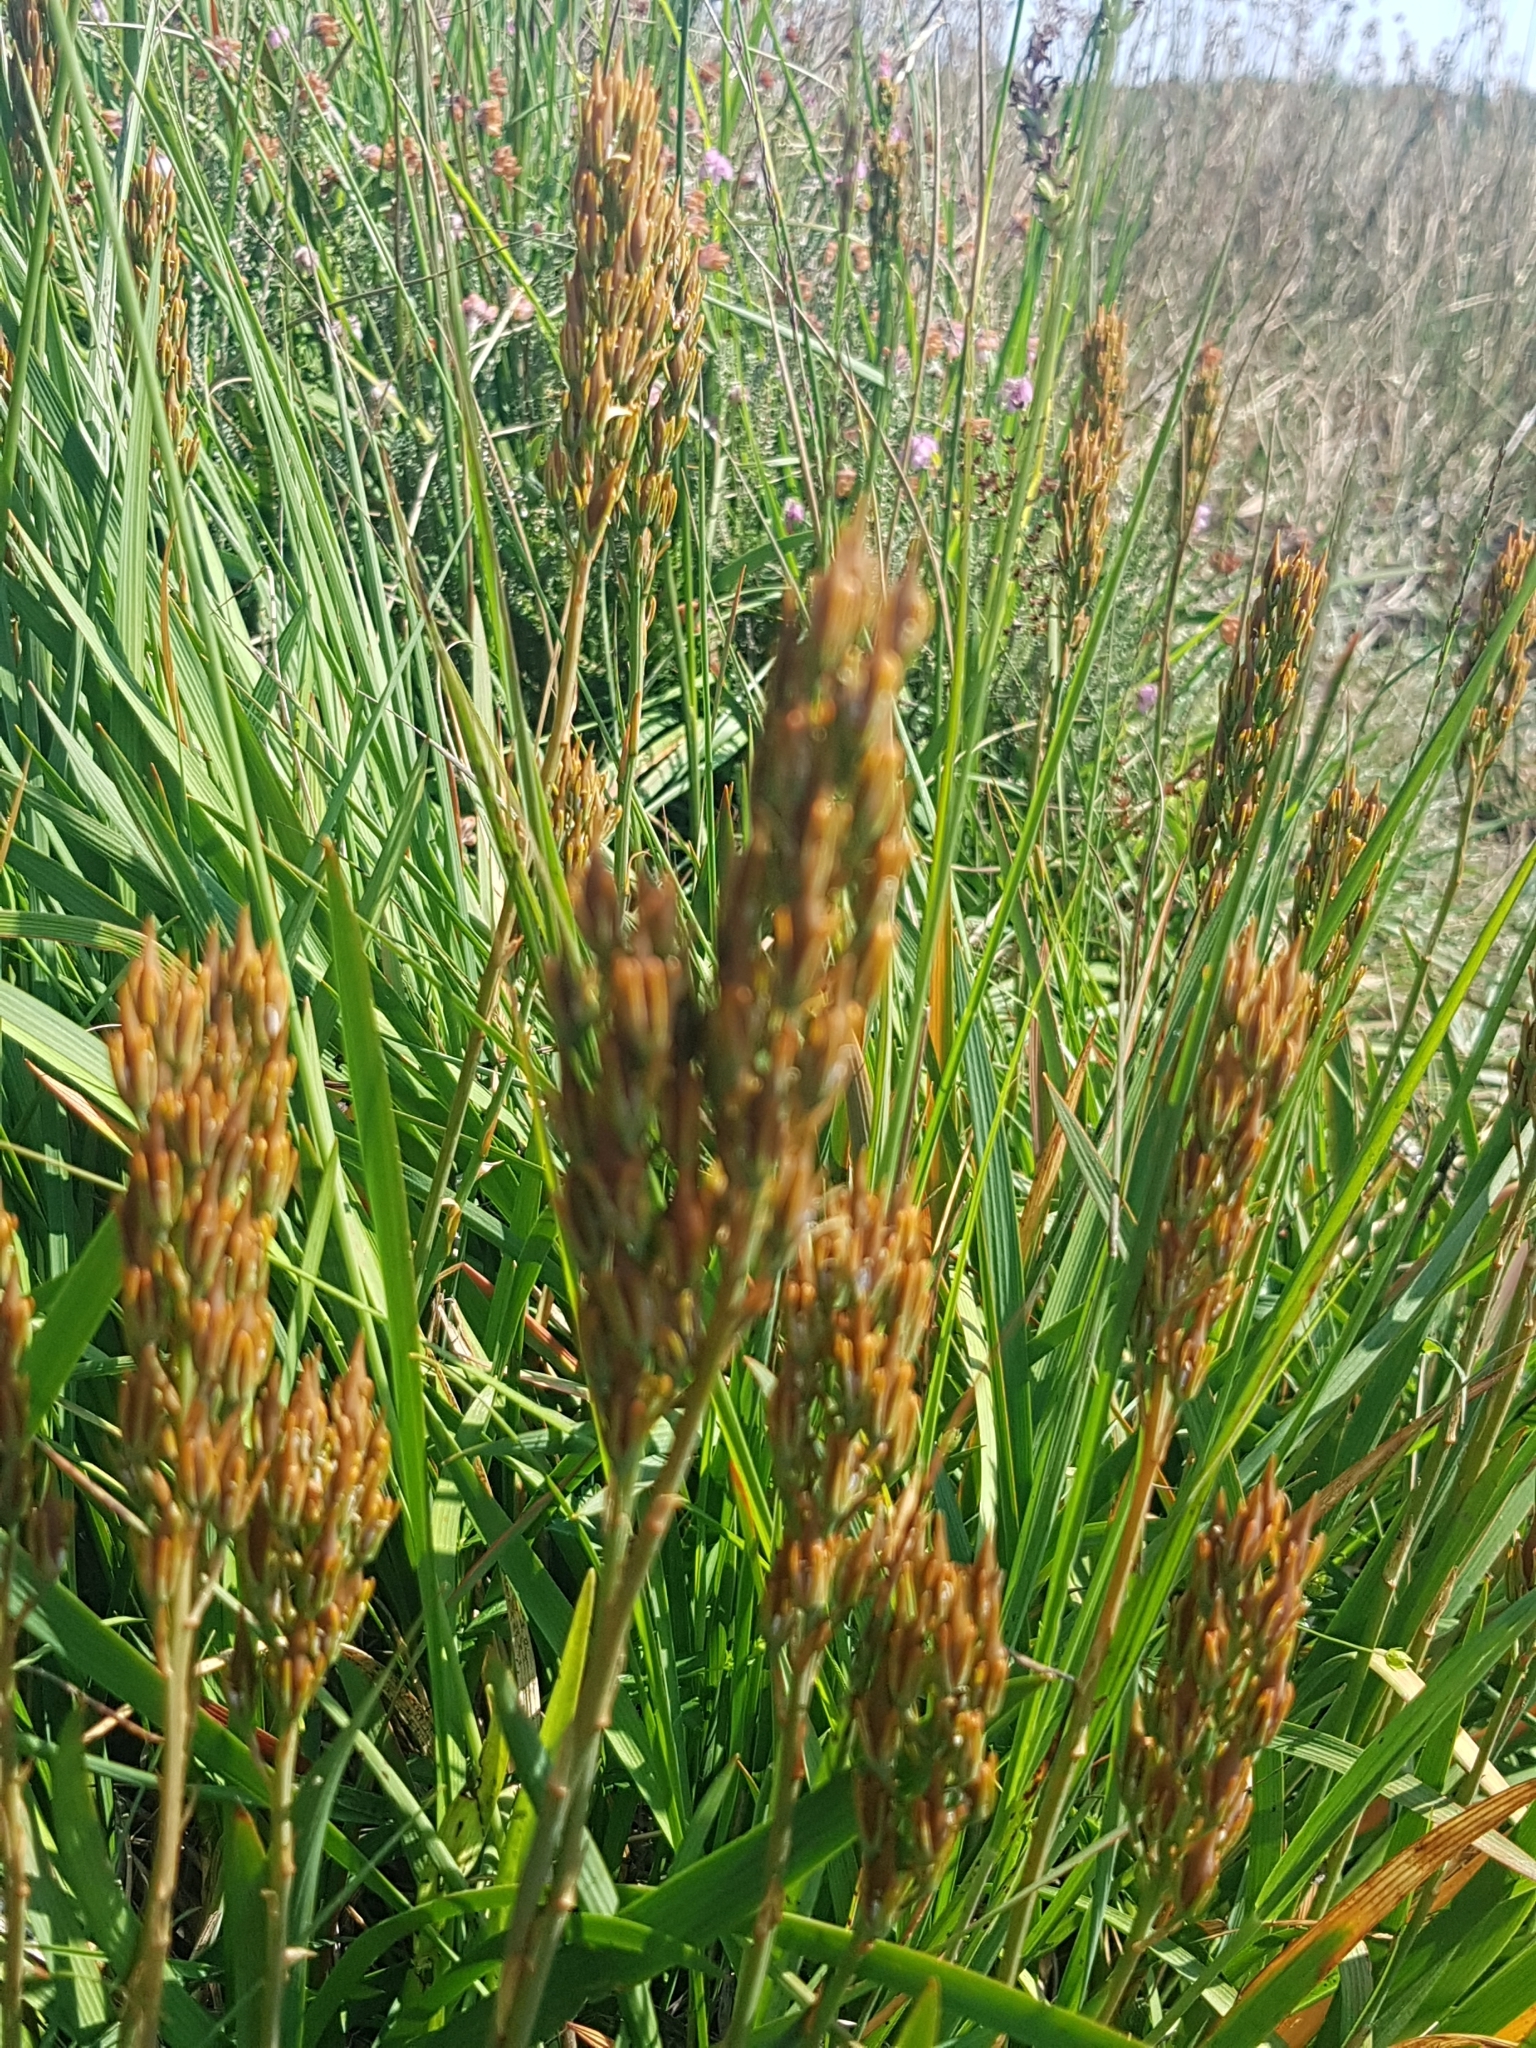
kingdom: Plantae
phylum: Tracheophyta
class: Liliopsida
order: Dioscoreales
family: Nartheciaceae
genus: Narthecium
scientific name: Narthecium ossifragum
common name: Bog asphodel
